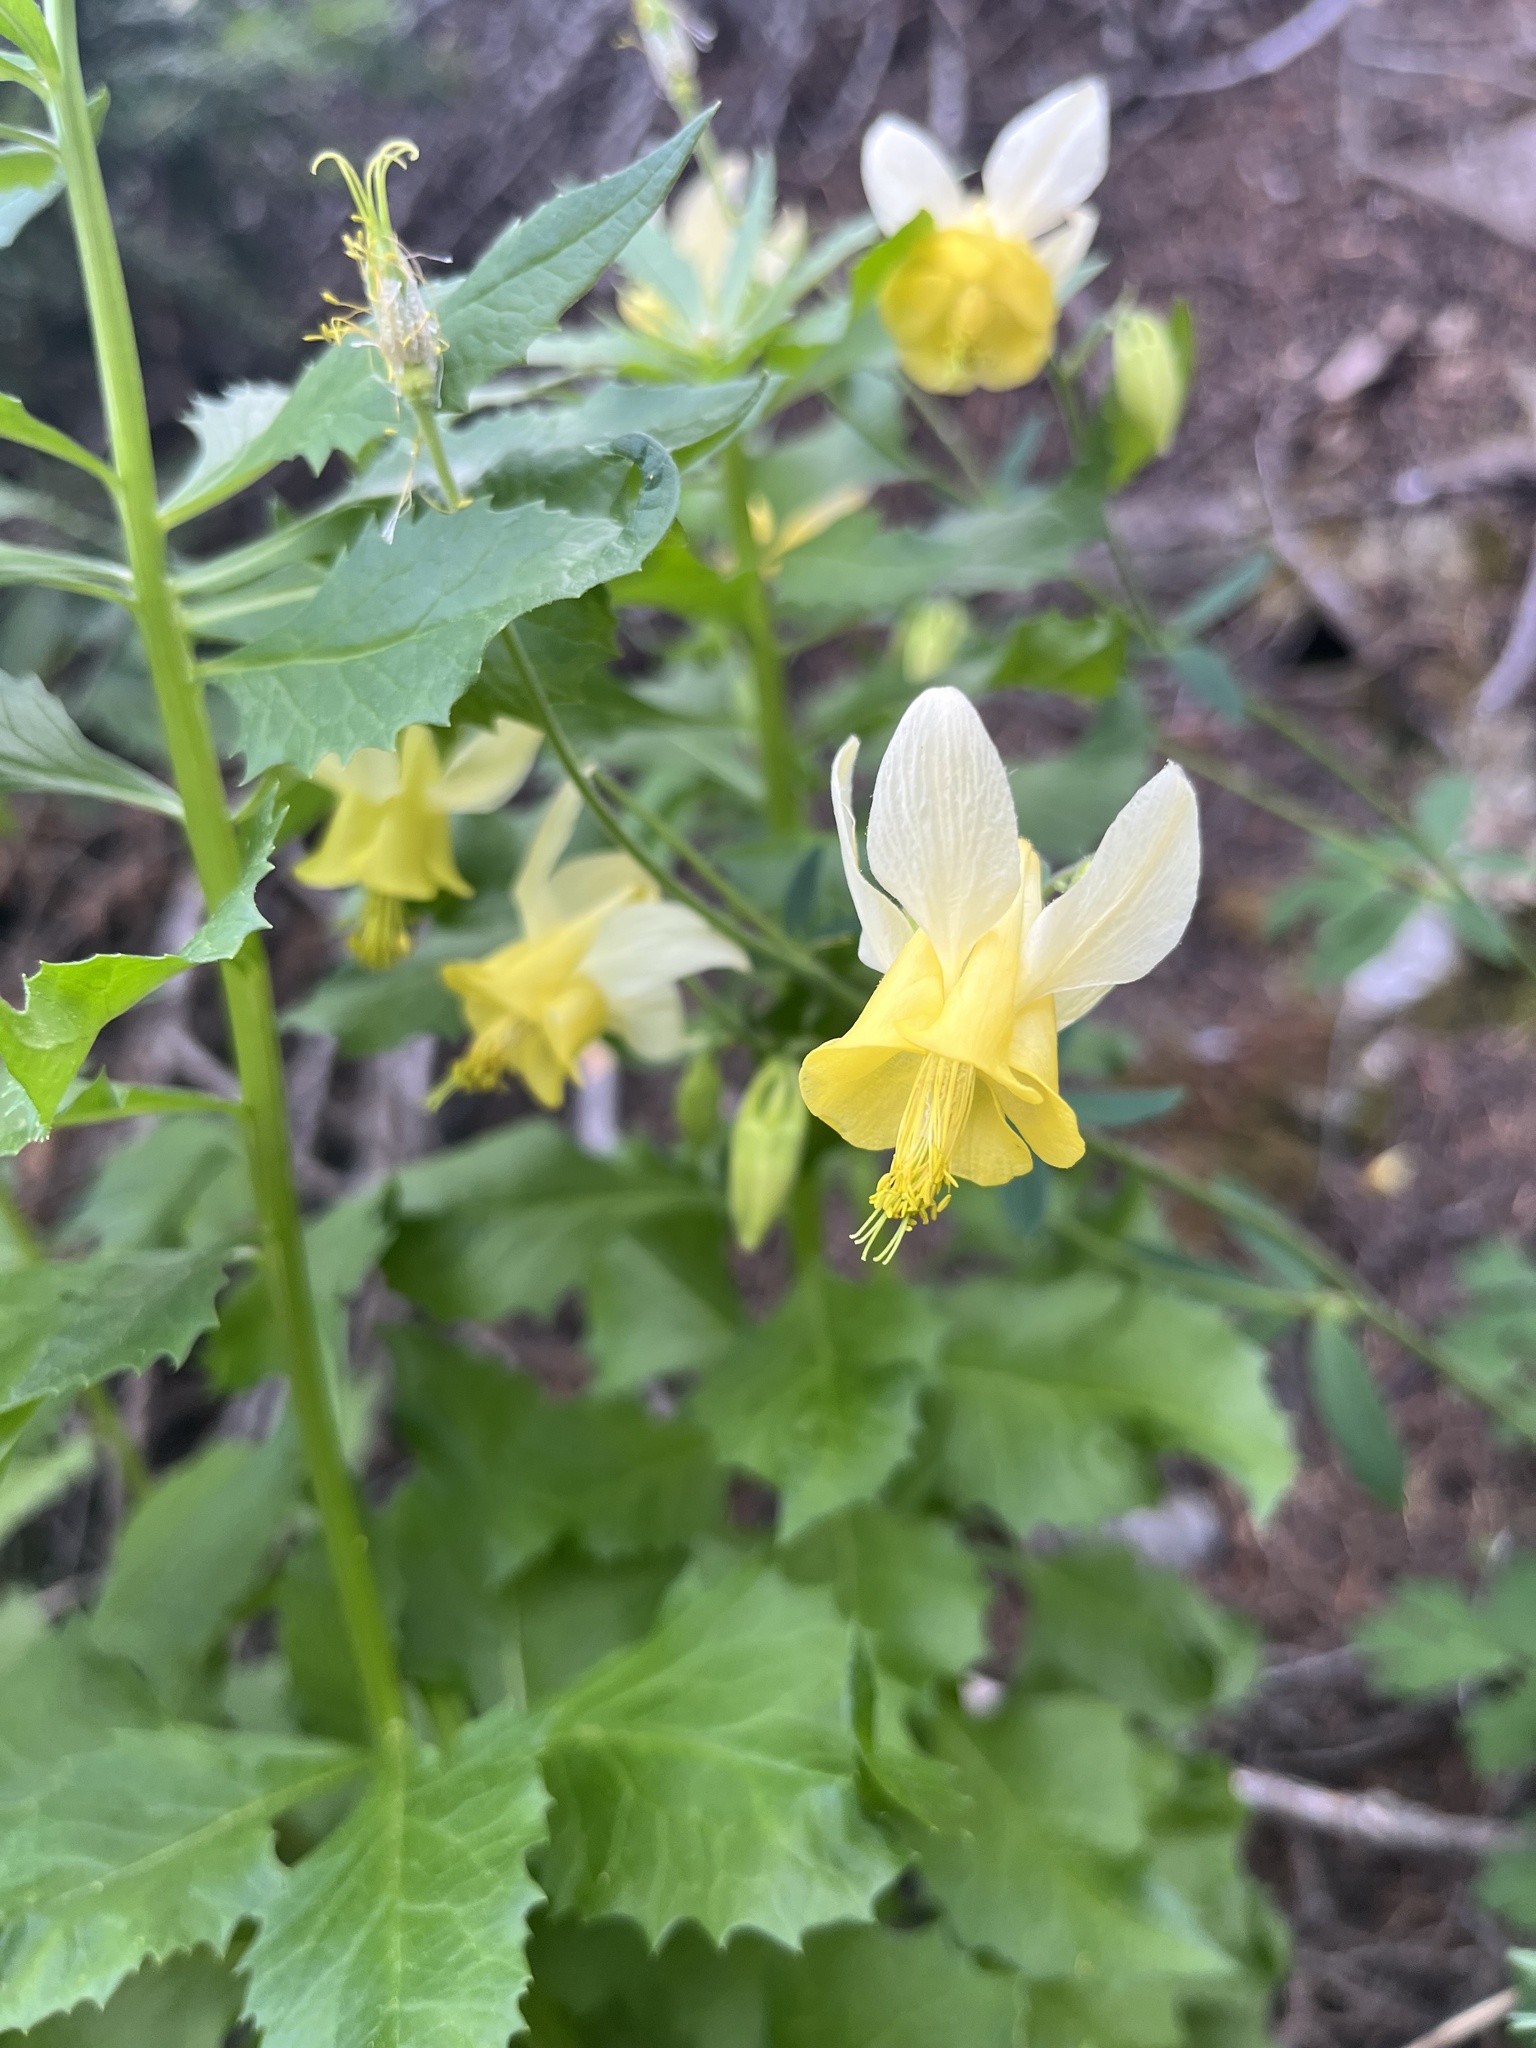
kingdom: Plantae
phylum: Tracheophyta
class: Magnoliopsida
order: Ranunculales
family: Ranunculaceae
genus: Aquilegia
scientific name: Aquilegia flavescens
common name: Yellow columbine
